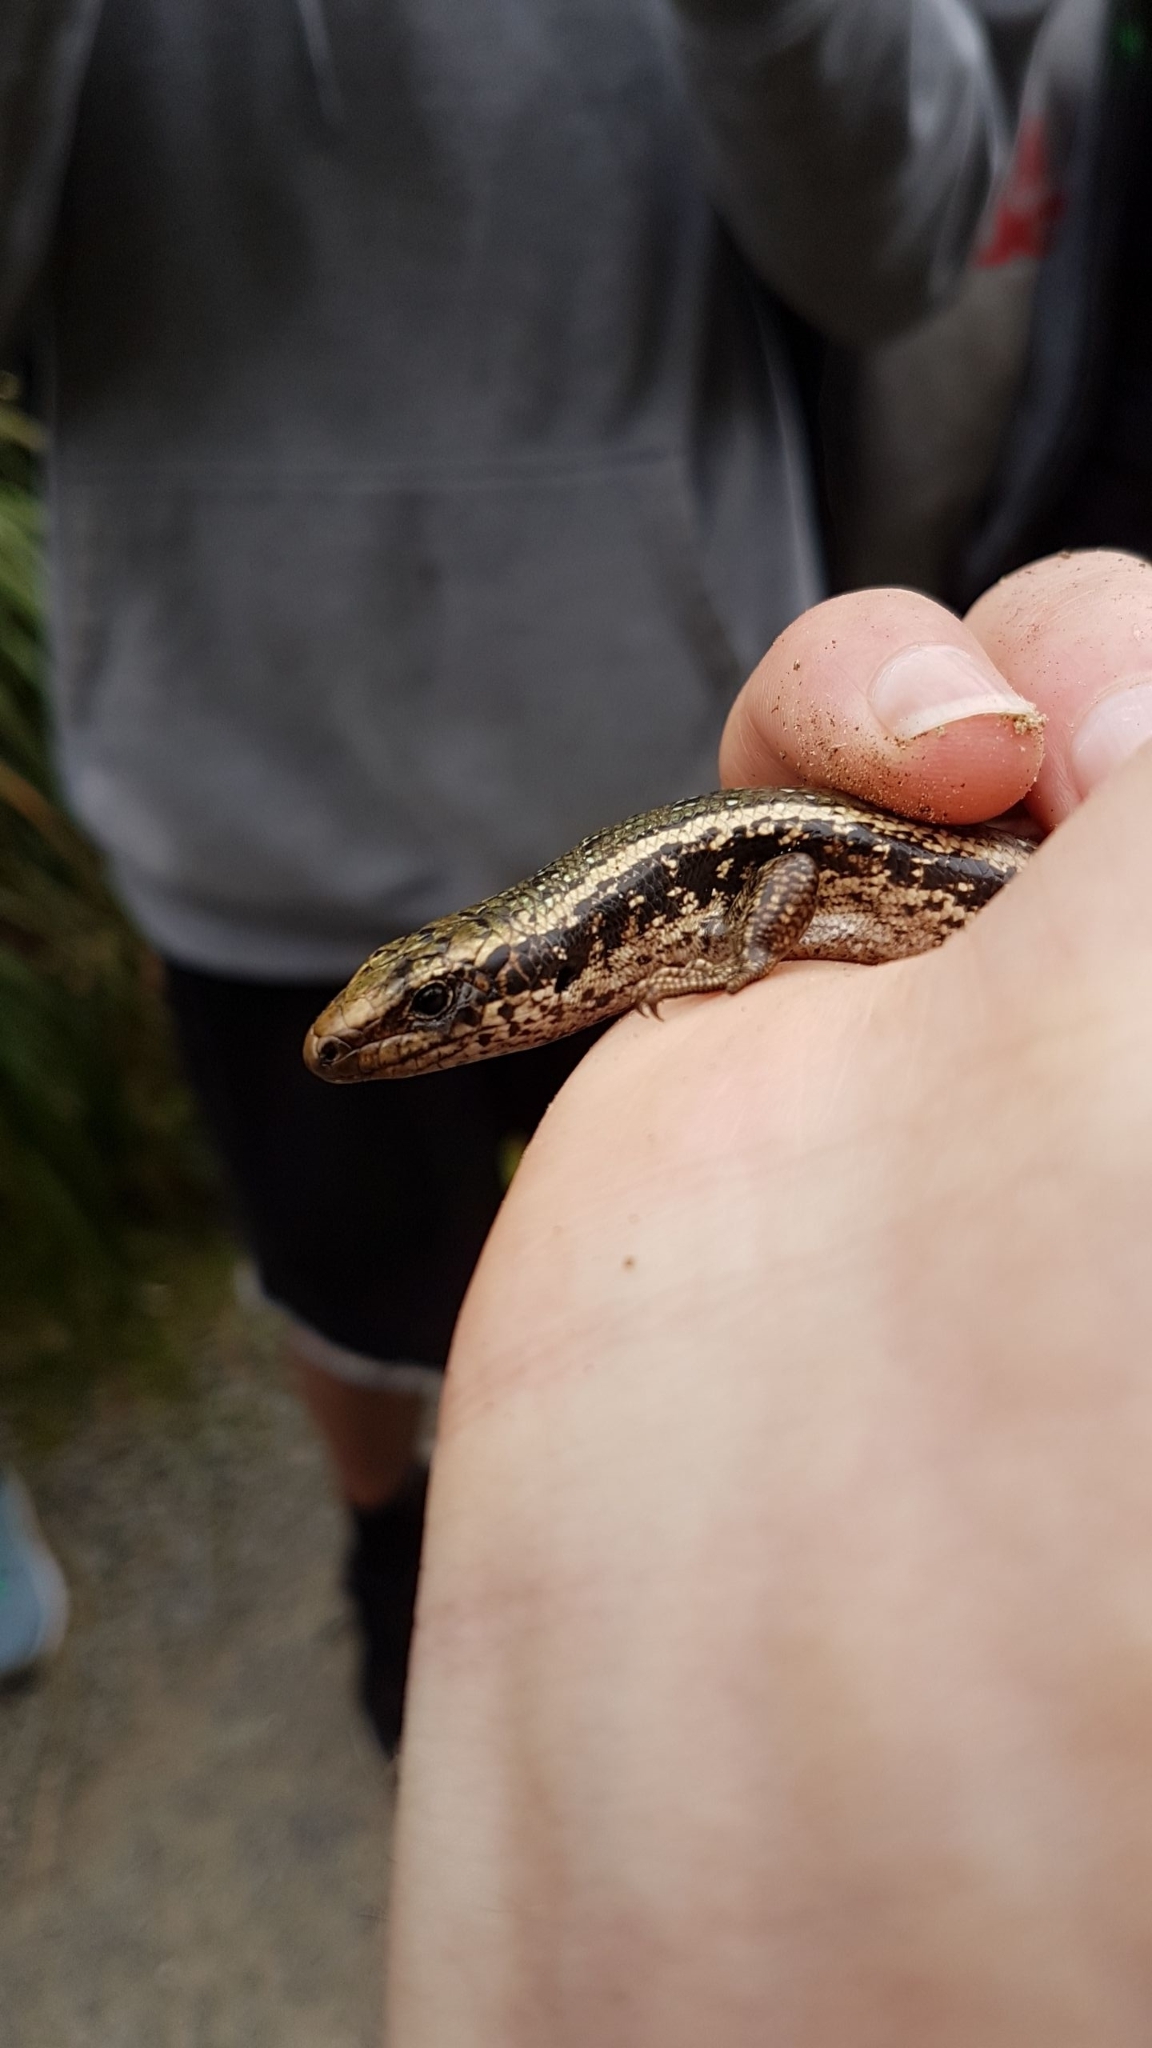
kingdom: Animalia
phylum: Chordata
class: Squamata
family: Scincidae
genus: Oligosoma
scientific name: Oligosoma kokowai
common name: Northern spotted skink
